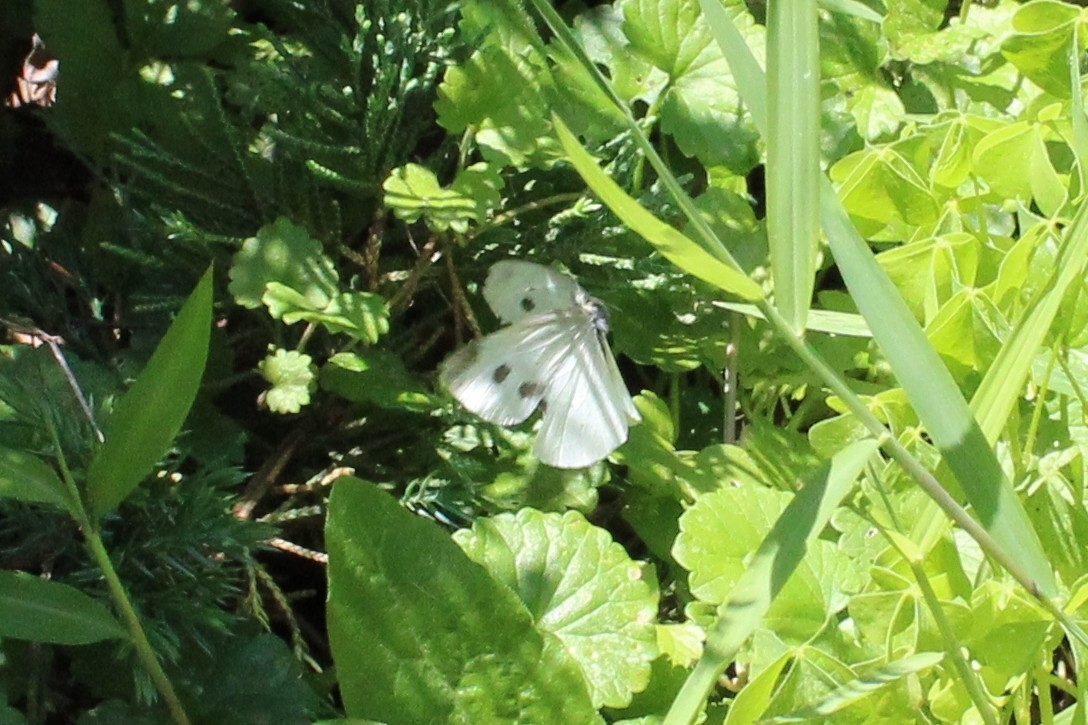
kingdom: Animalia
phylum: Arthropoda
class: Insecta
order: Lepidoptera
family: Pieridae
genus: Pieris
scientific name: Pieris rapae
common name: Small white
